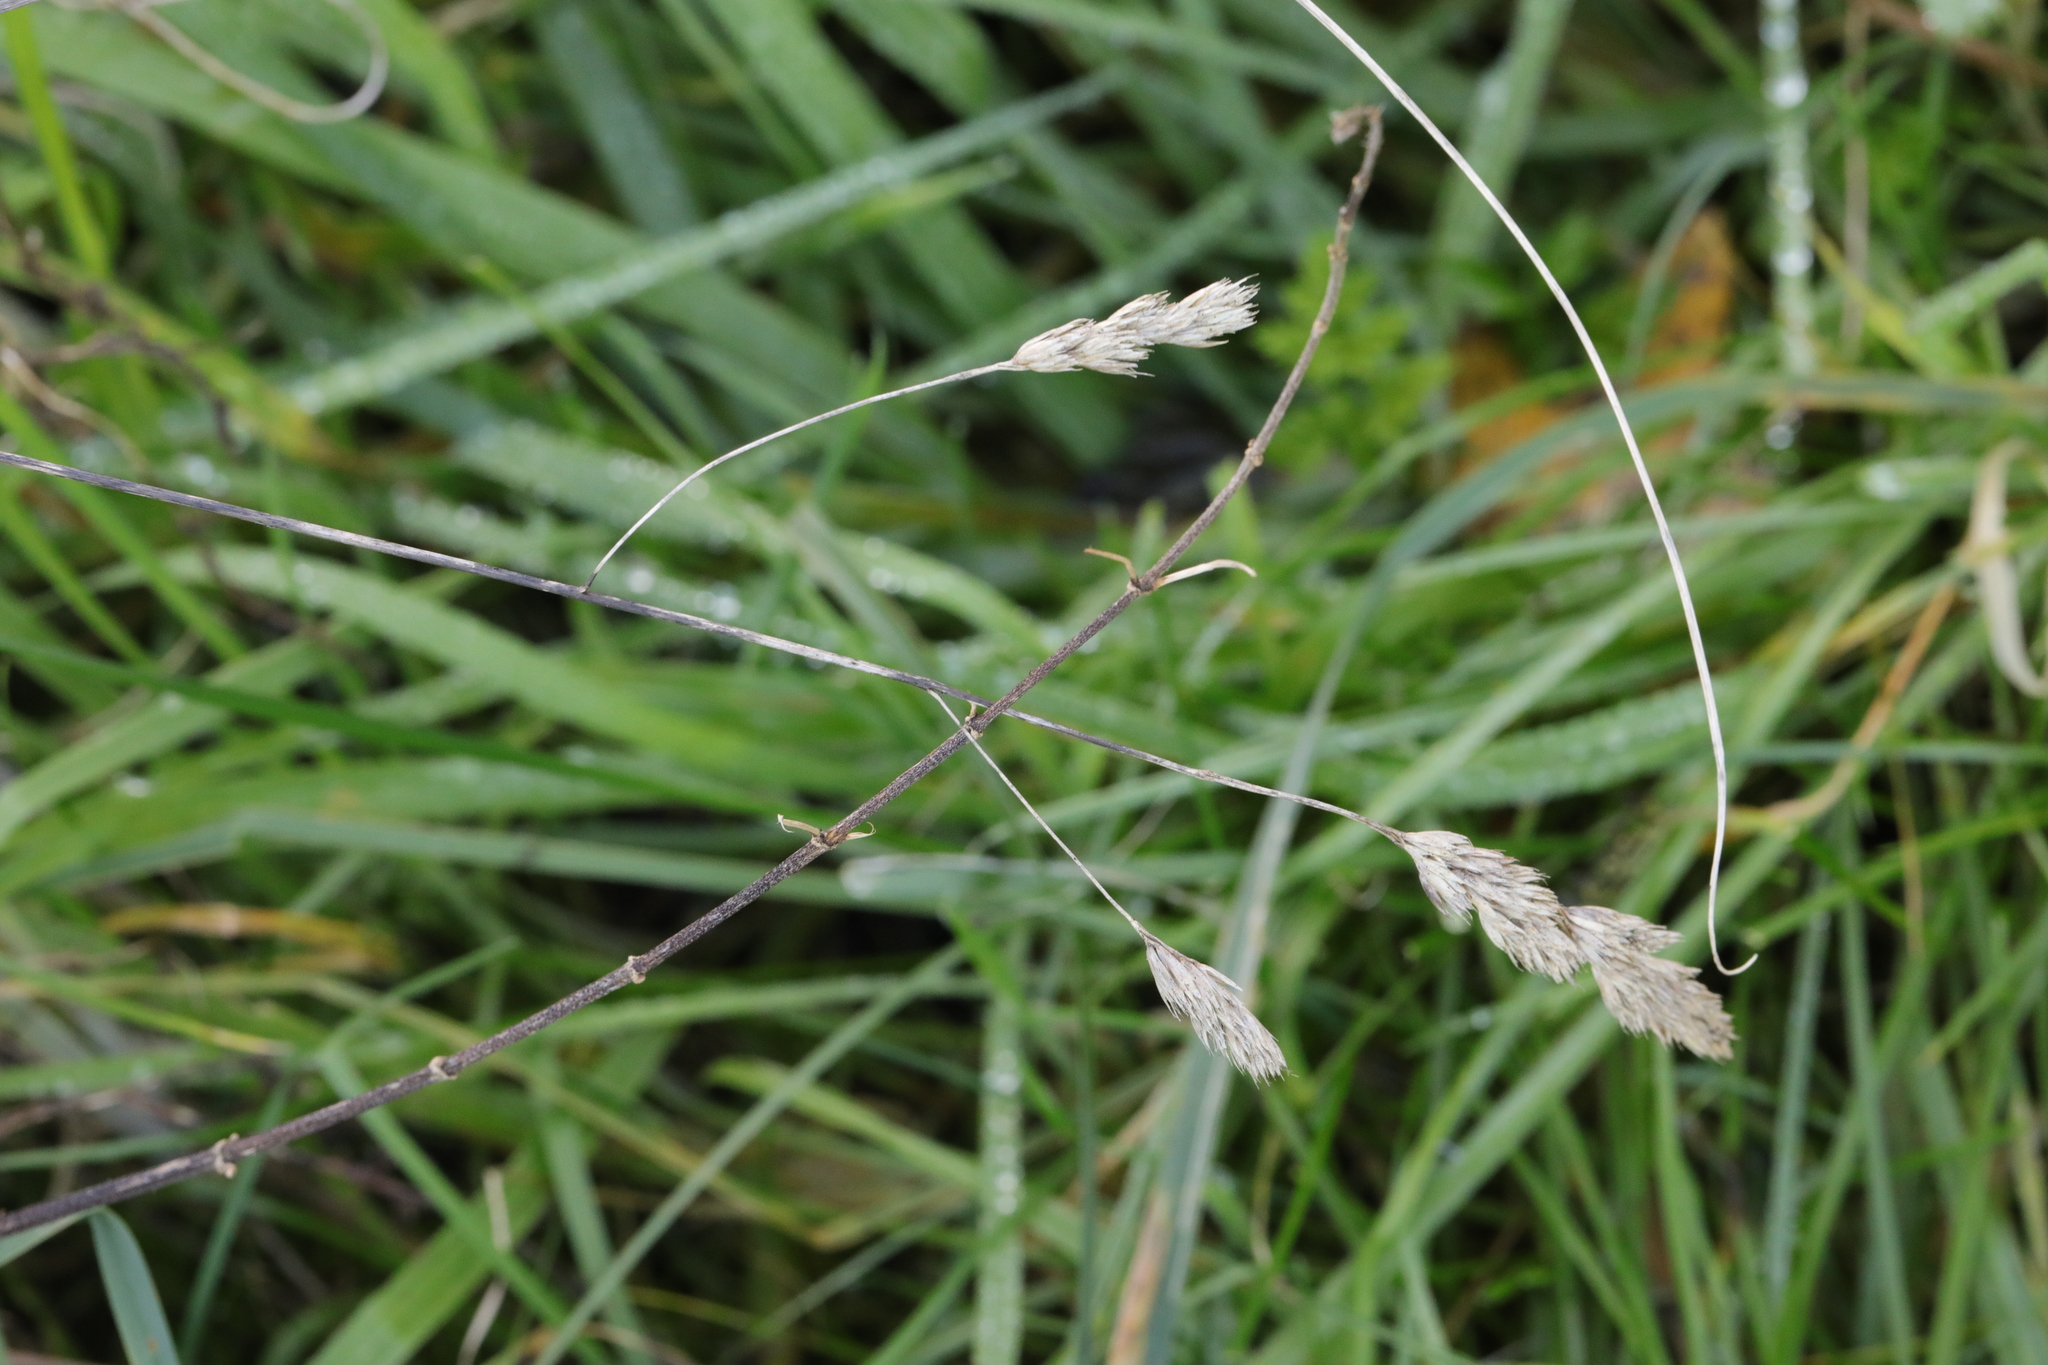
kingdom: Plantae
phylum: Tracheophyta
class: Liliopsida
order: Poales
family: Poaceae
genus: Dactylis
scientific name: Dactylis glomerata
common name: Orchardgrass
